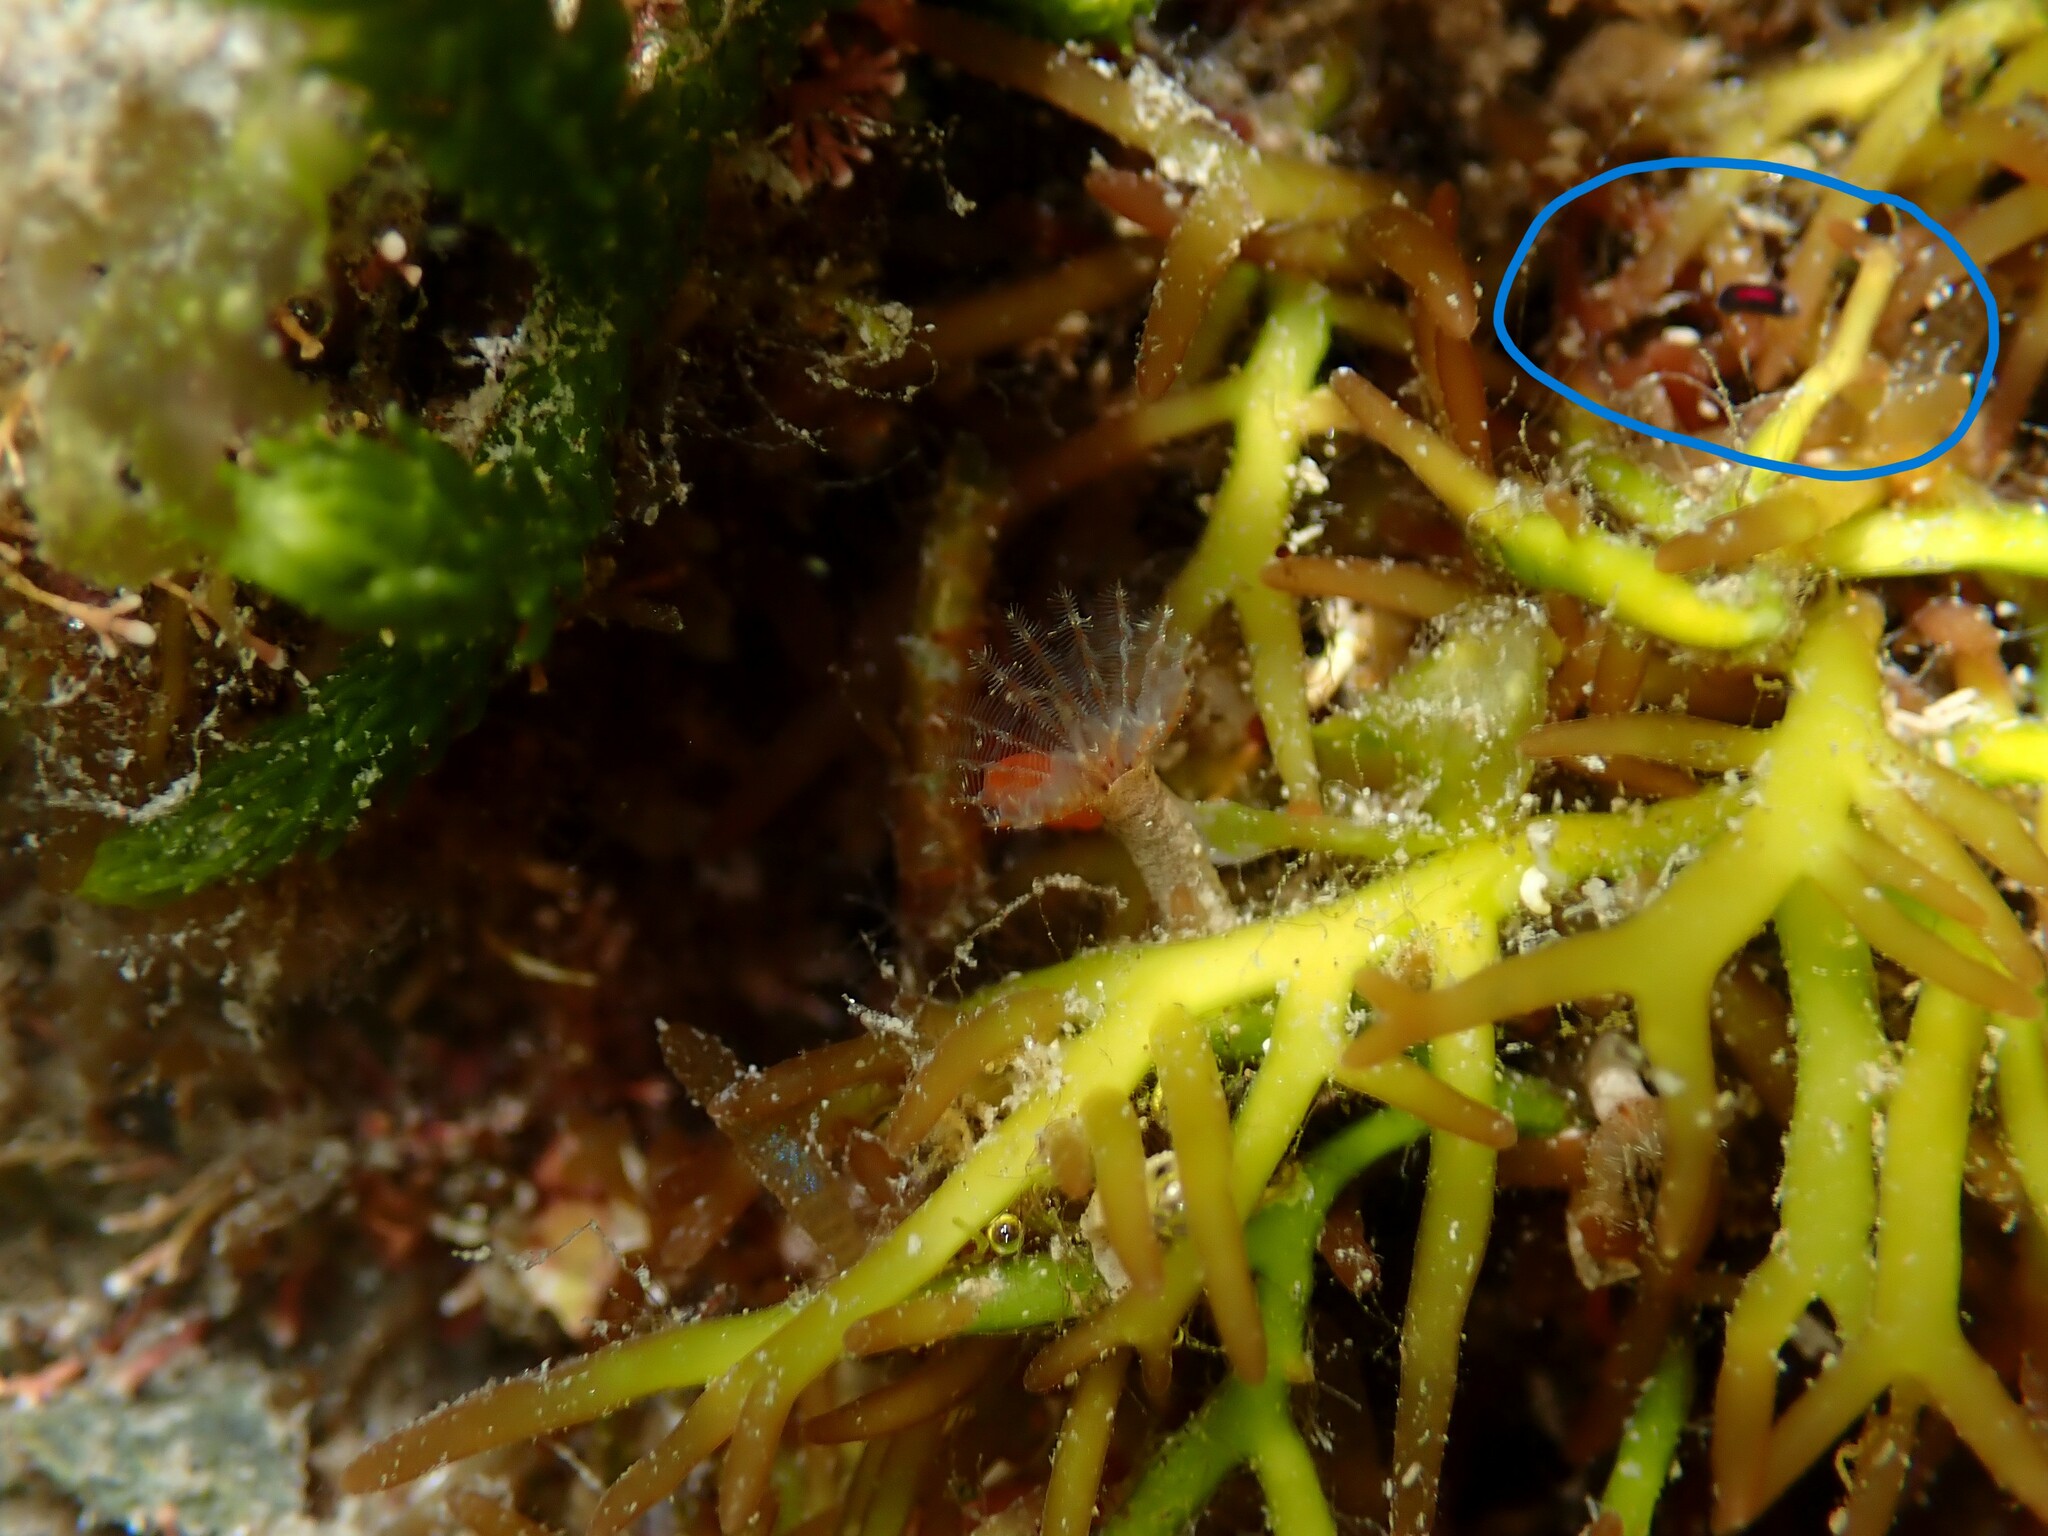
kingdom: Animalia
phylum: Mollusca
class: Gastropoda
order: Runcinida
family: Runcinidae
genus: Runcina
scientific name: Runcina katipoides
